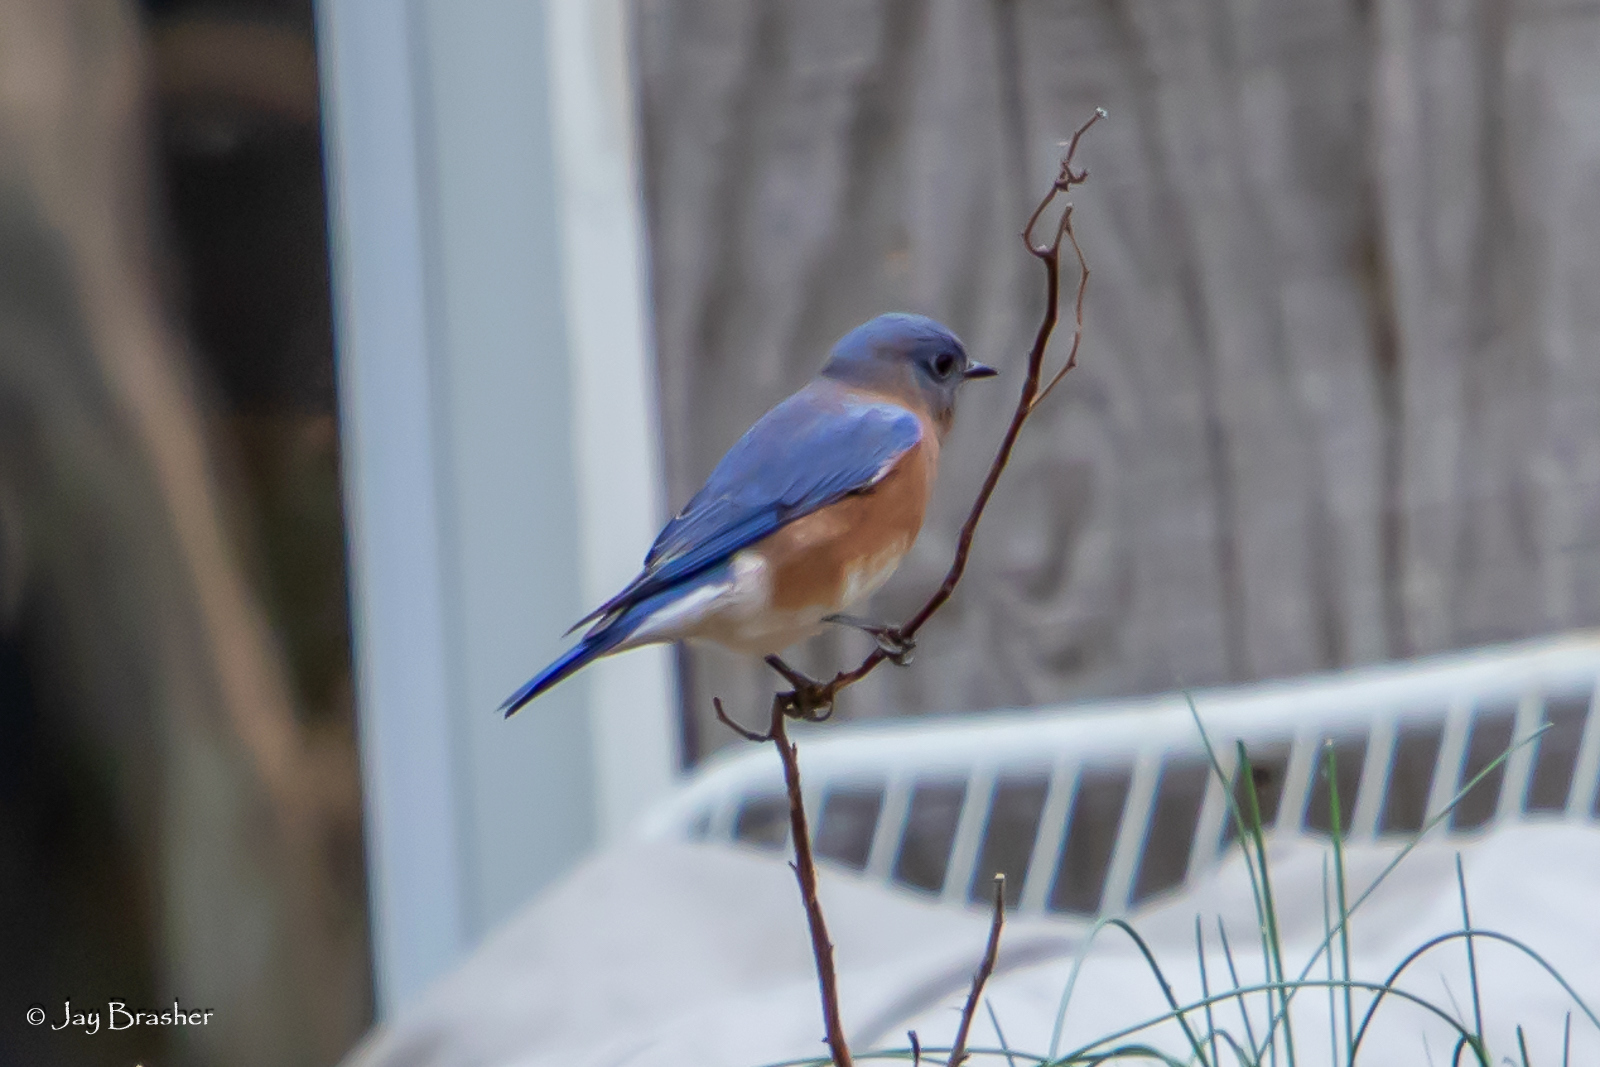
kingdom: Animalia
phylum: Chordata
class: Aves
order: Passeriformes
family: Turdidae
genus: Sialia
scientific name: Sialia sialis
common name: Eastern bluebird
